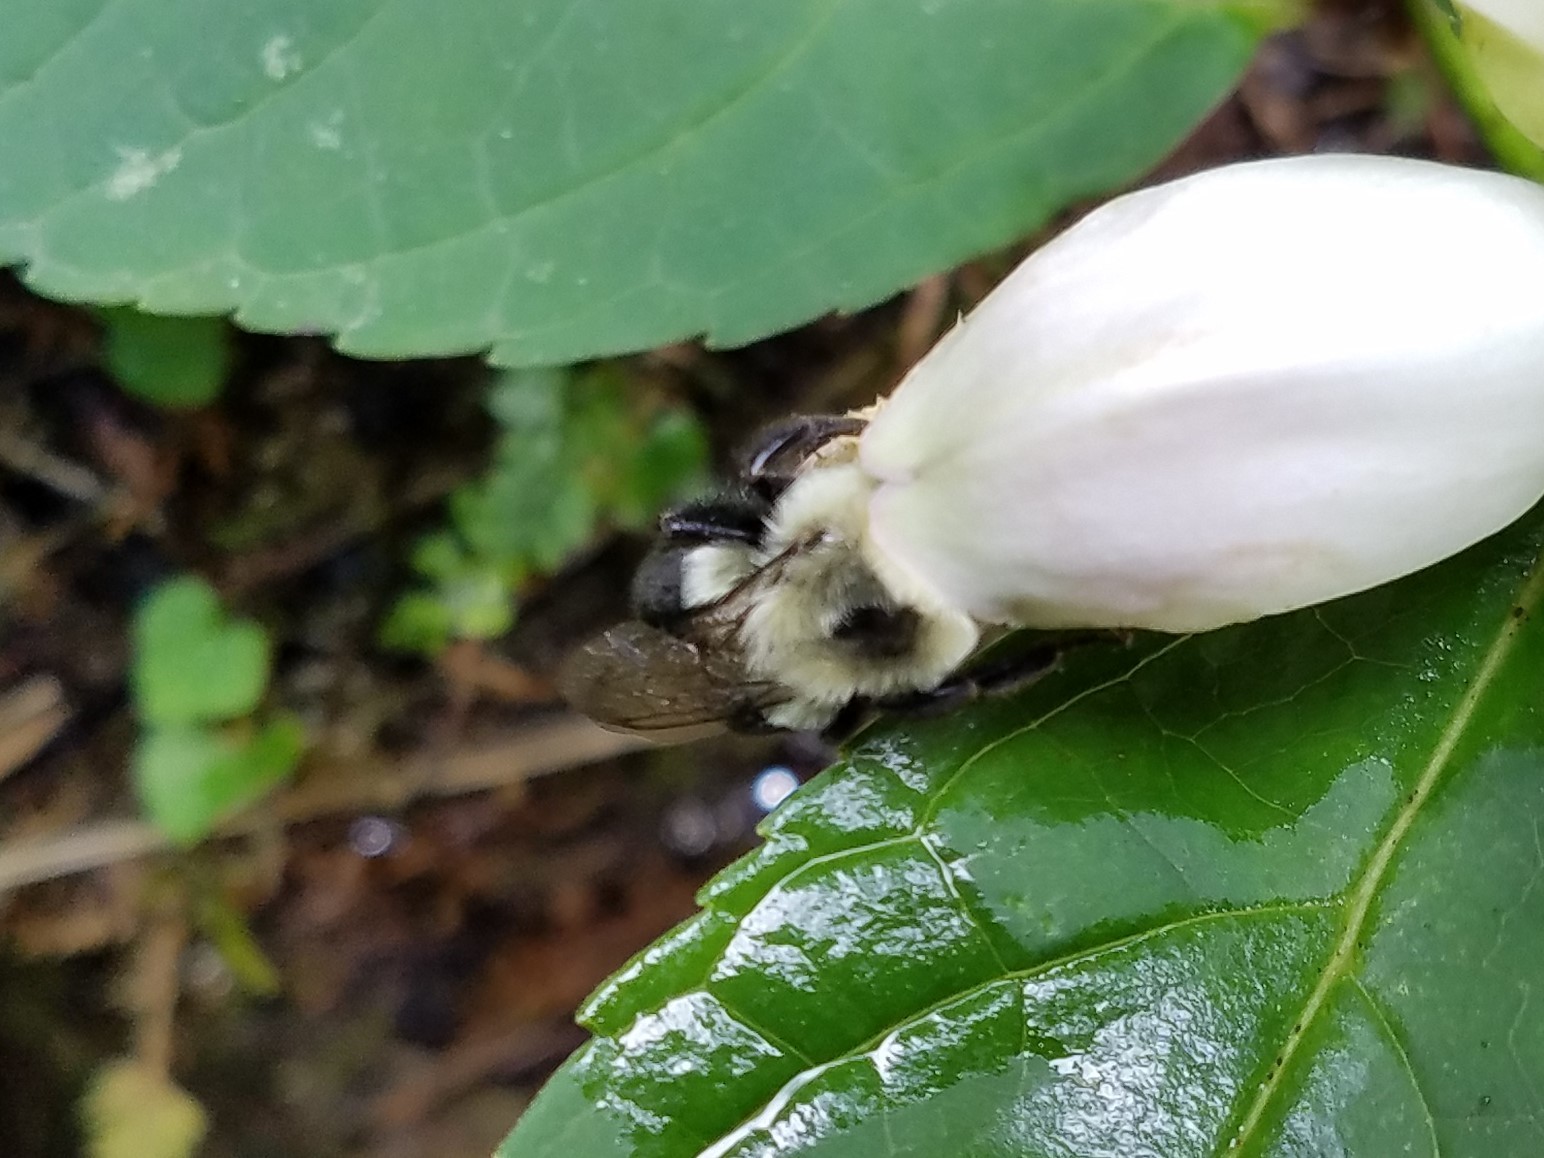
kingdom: Animalia
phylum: Arthropoda
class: Insecta
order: Hymenoptera
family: Apidae
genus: Bombus
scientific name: Bombus impatiens
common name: Common eastern bumble bee
